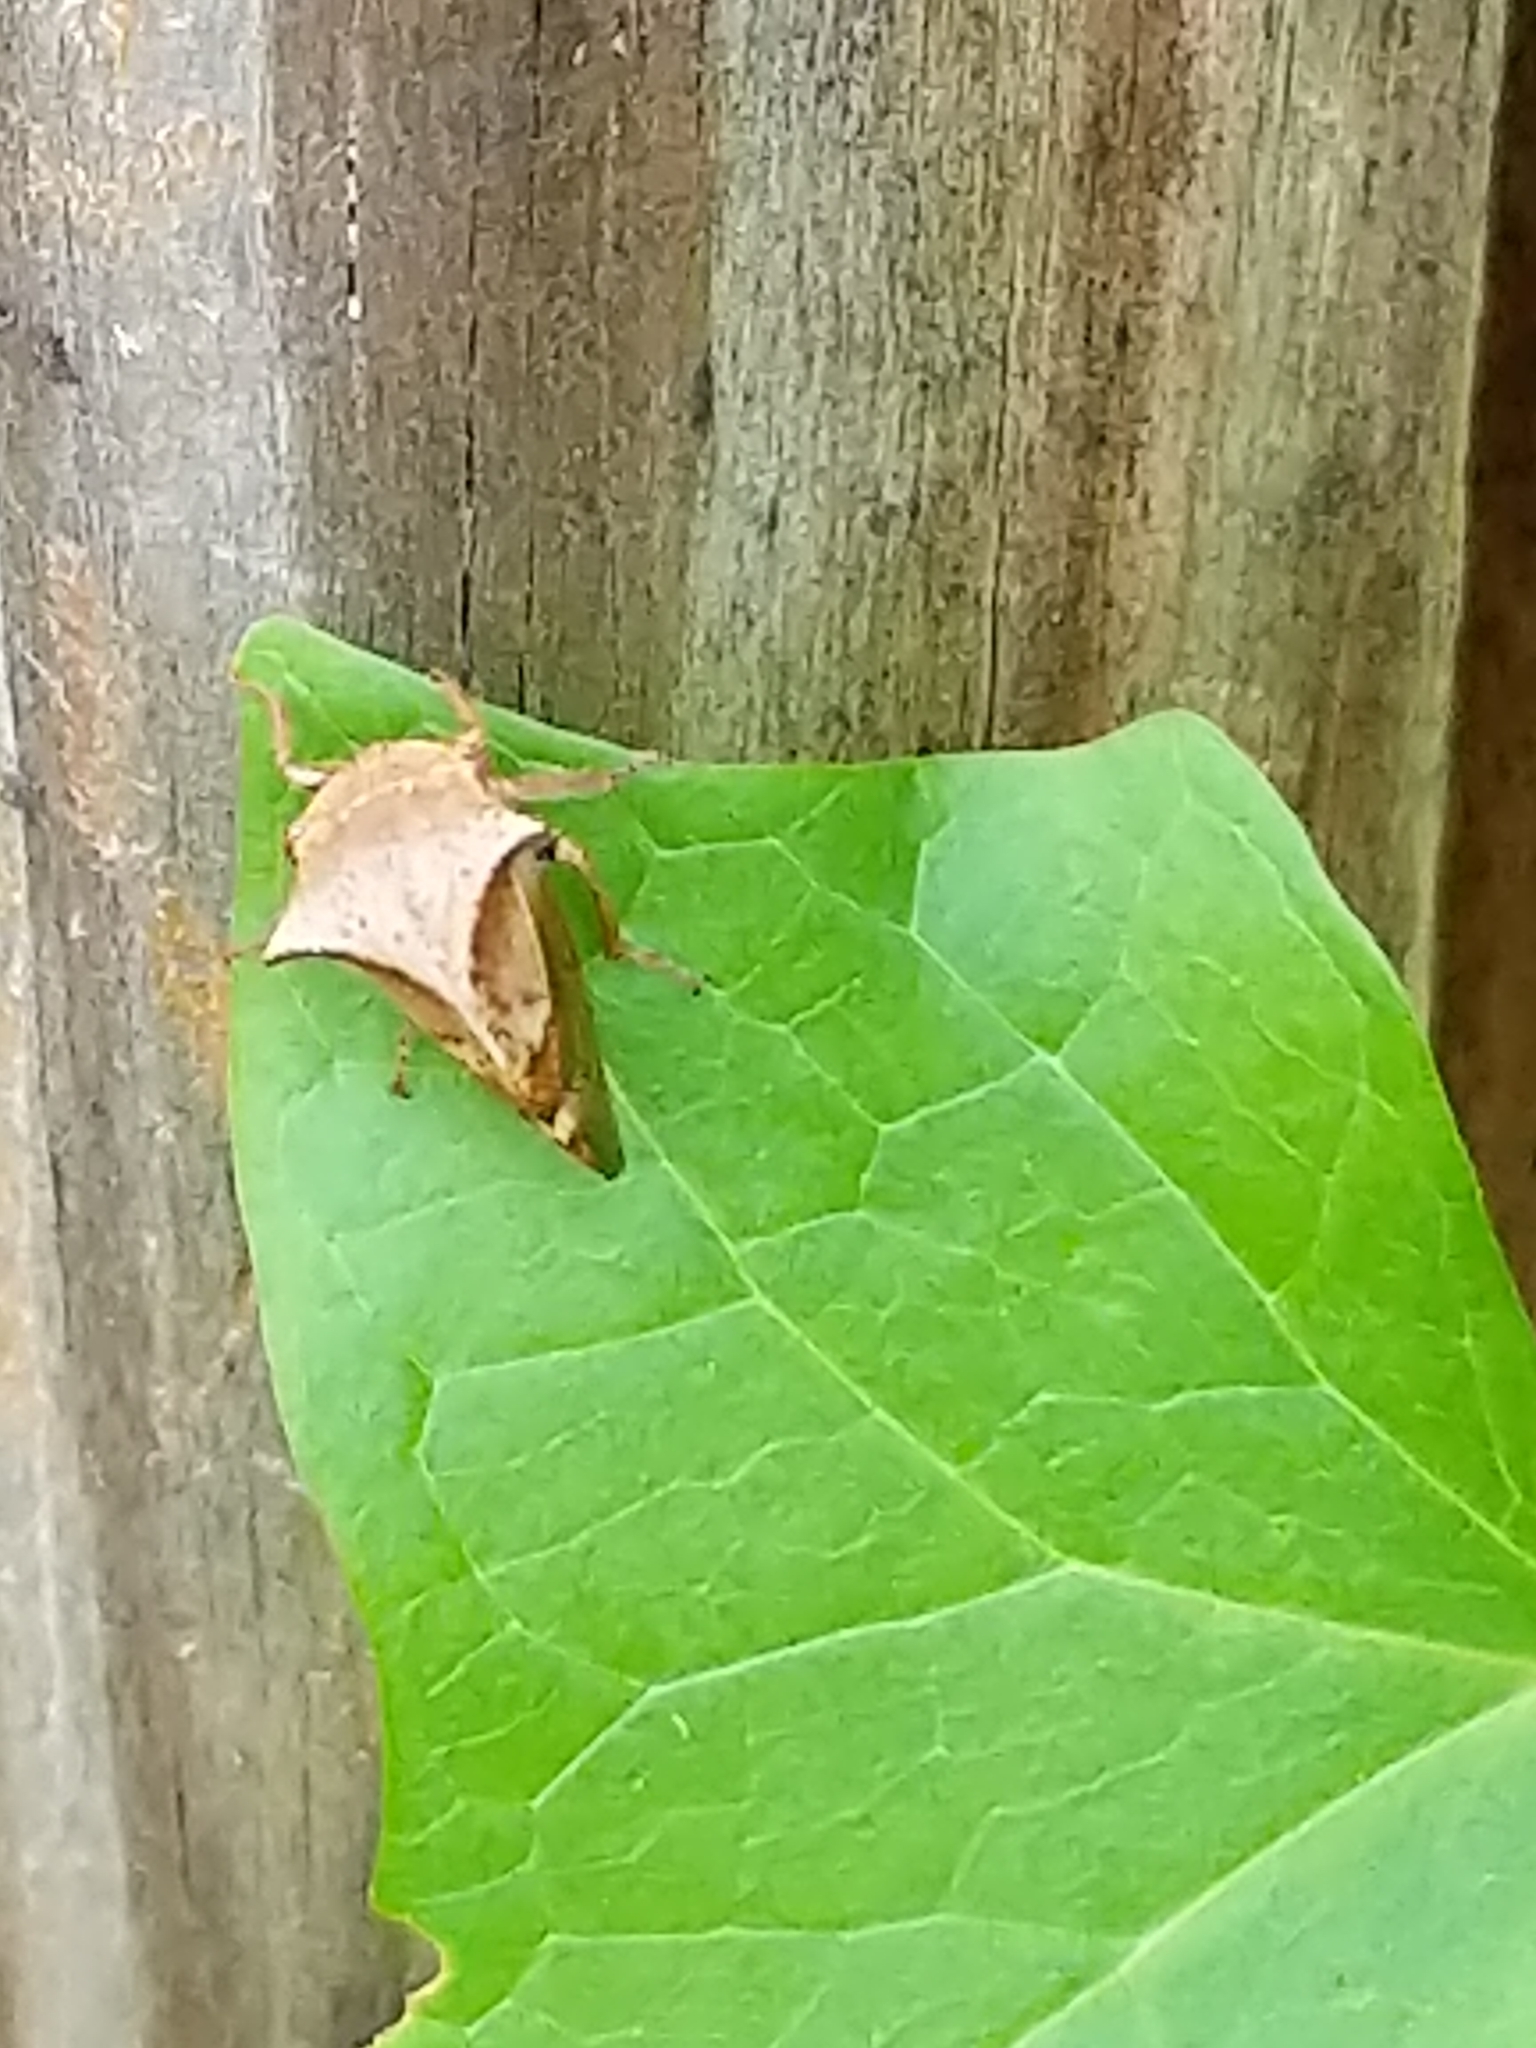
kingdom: Animalia
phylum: Arthropoda
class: Insecta
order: Hemiptera
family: Membracidae
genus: Stictocephala
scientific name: Stictocephala diceros
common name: Two-horned treehopper
